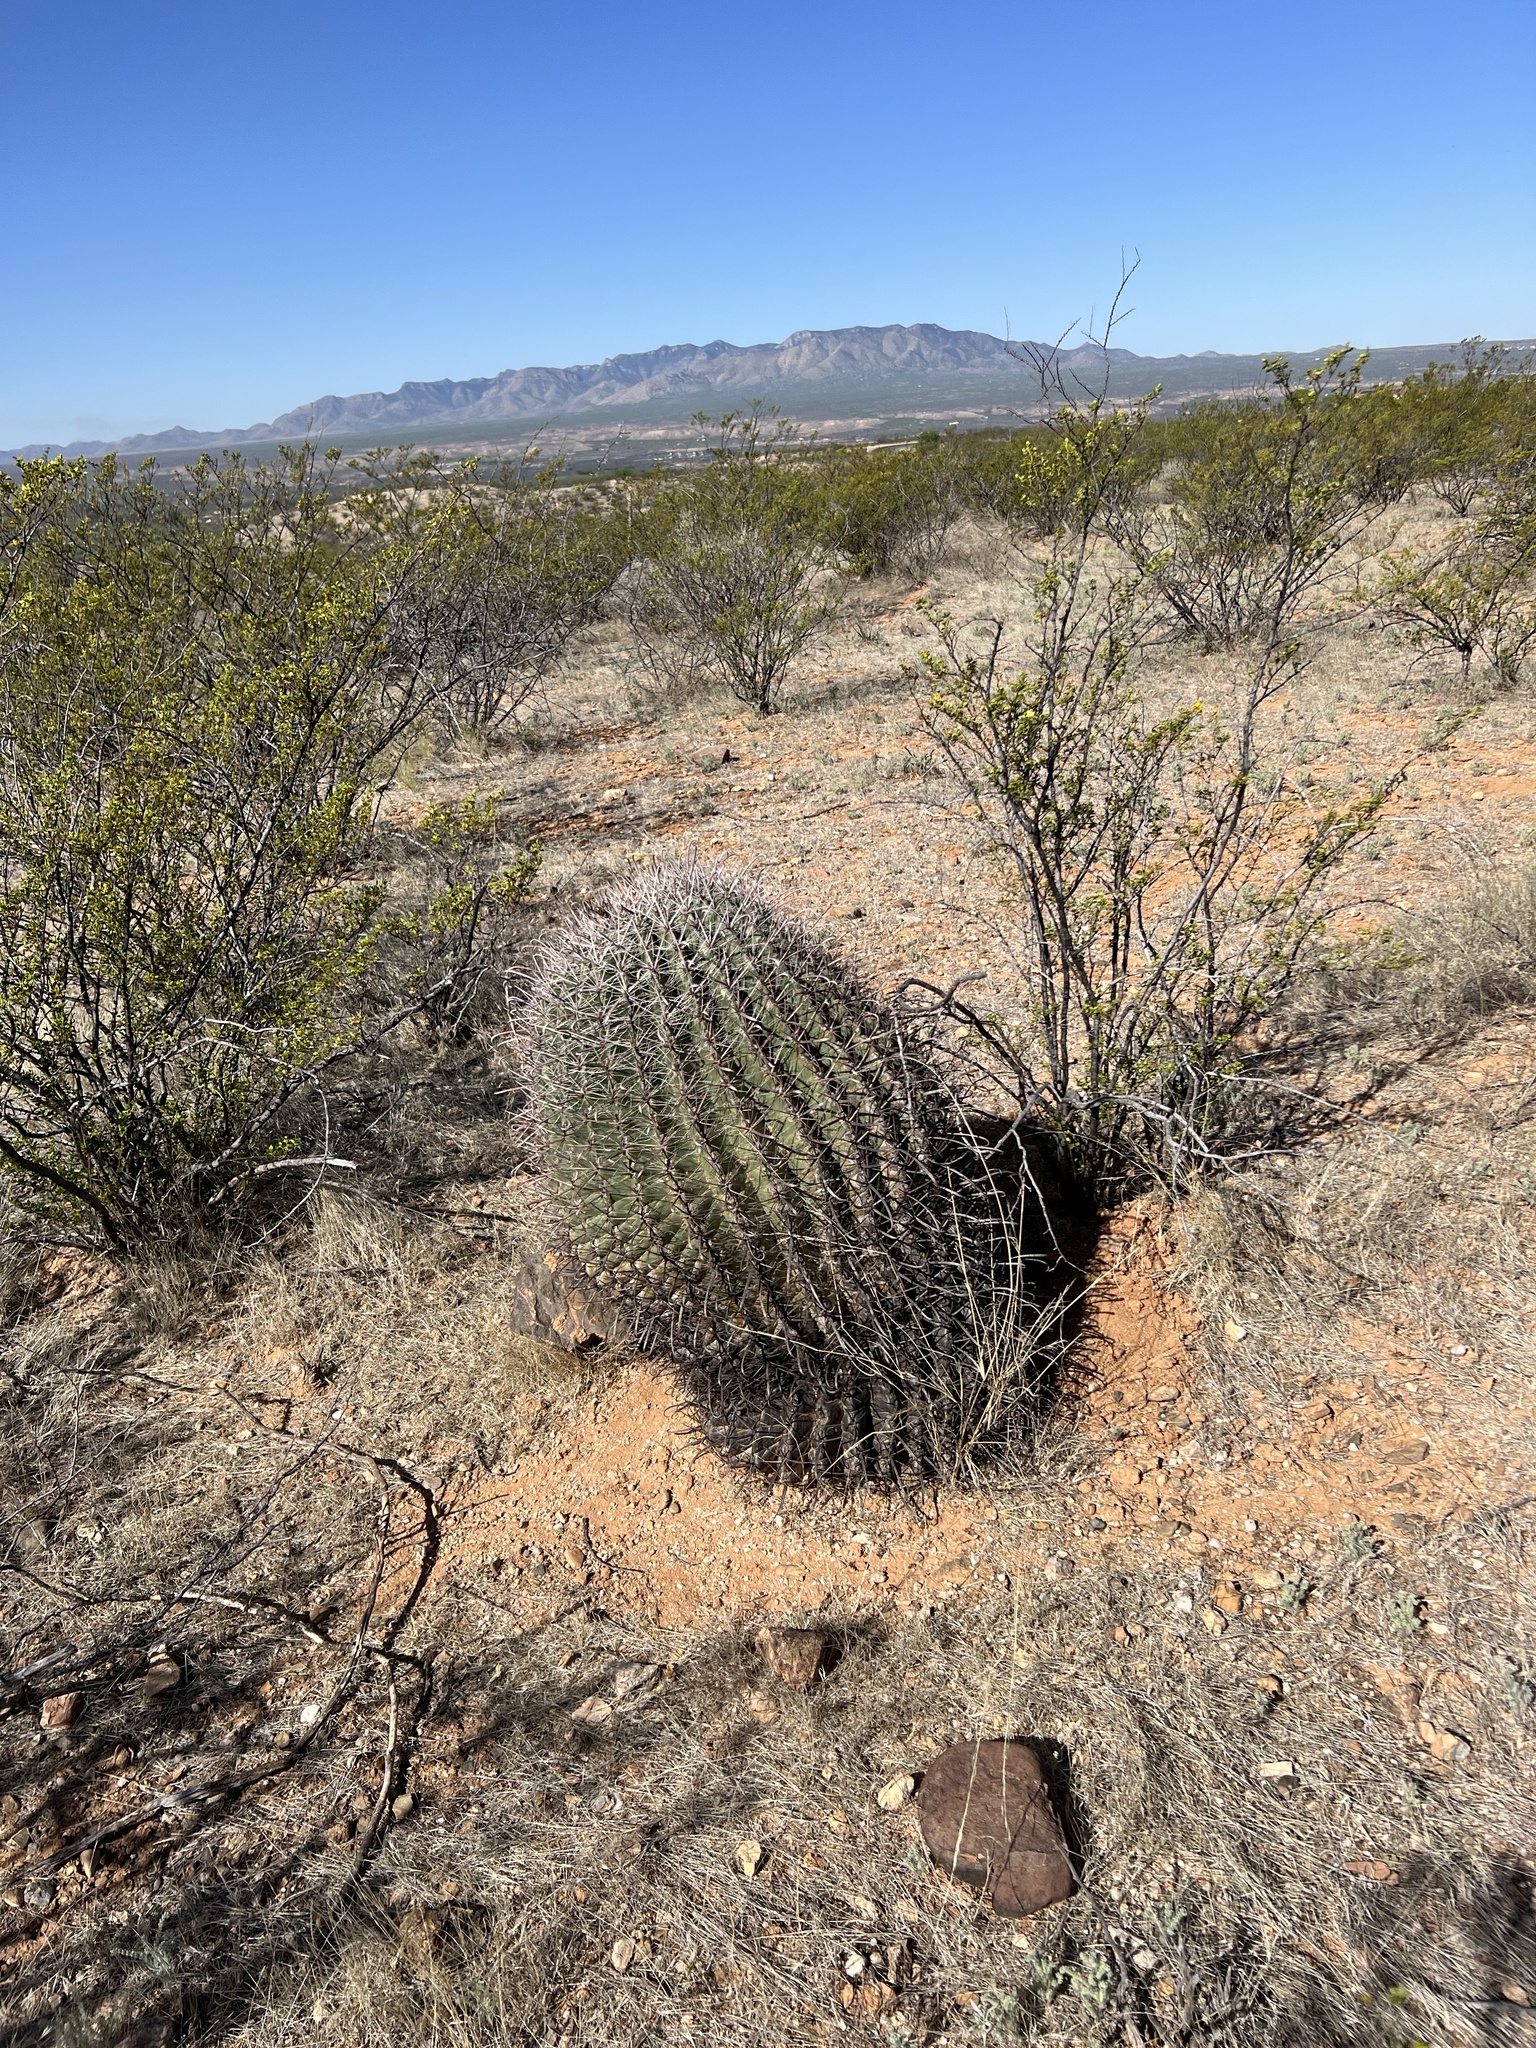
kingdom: Plantae
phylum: Tracheophyta
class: Magnoliopsida
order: Caryophyllales
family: Cactaceae
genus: Ferocactus
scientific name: Ferocactus wislizeni
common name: Candy barrel cactus
